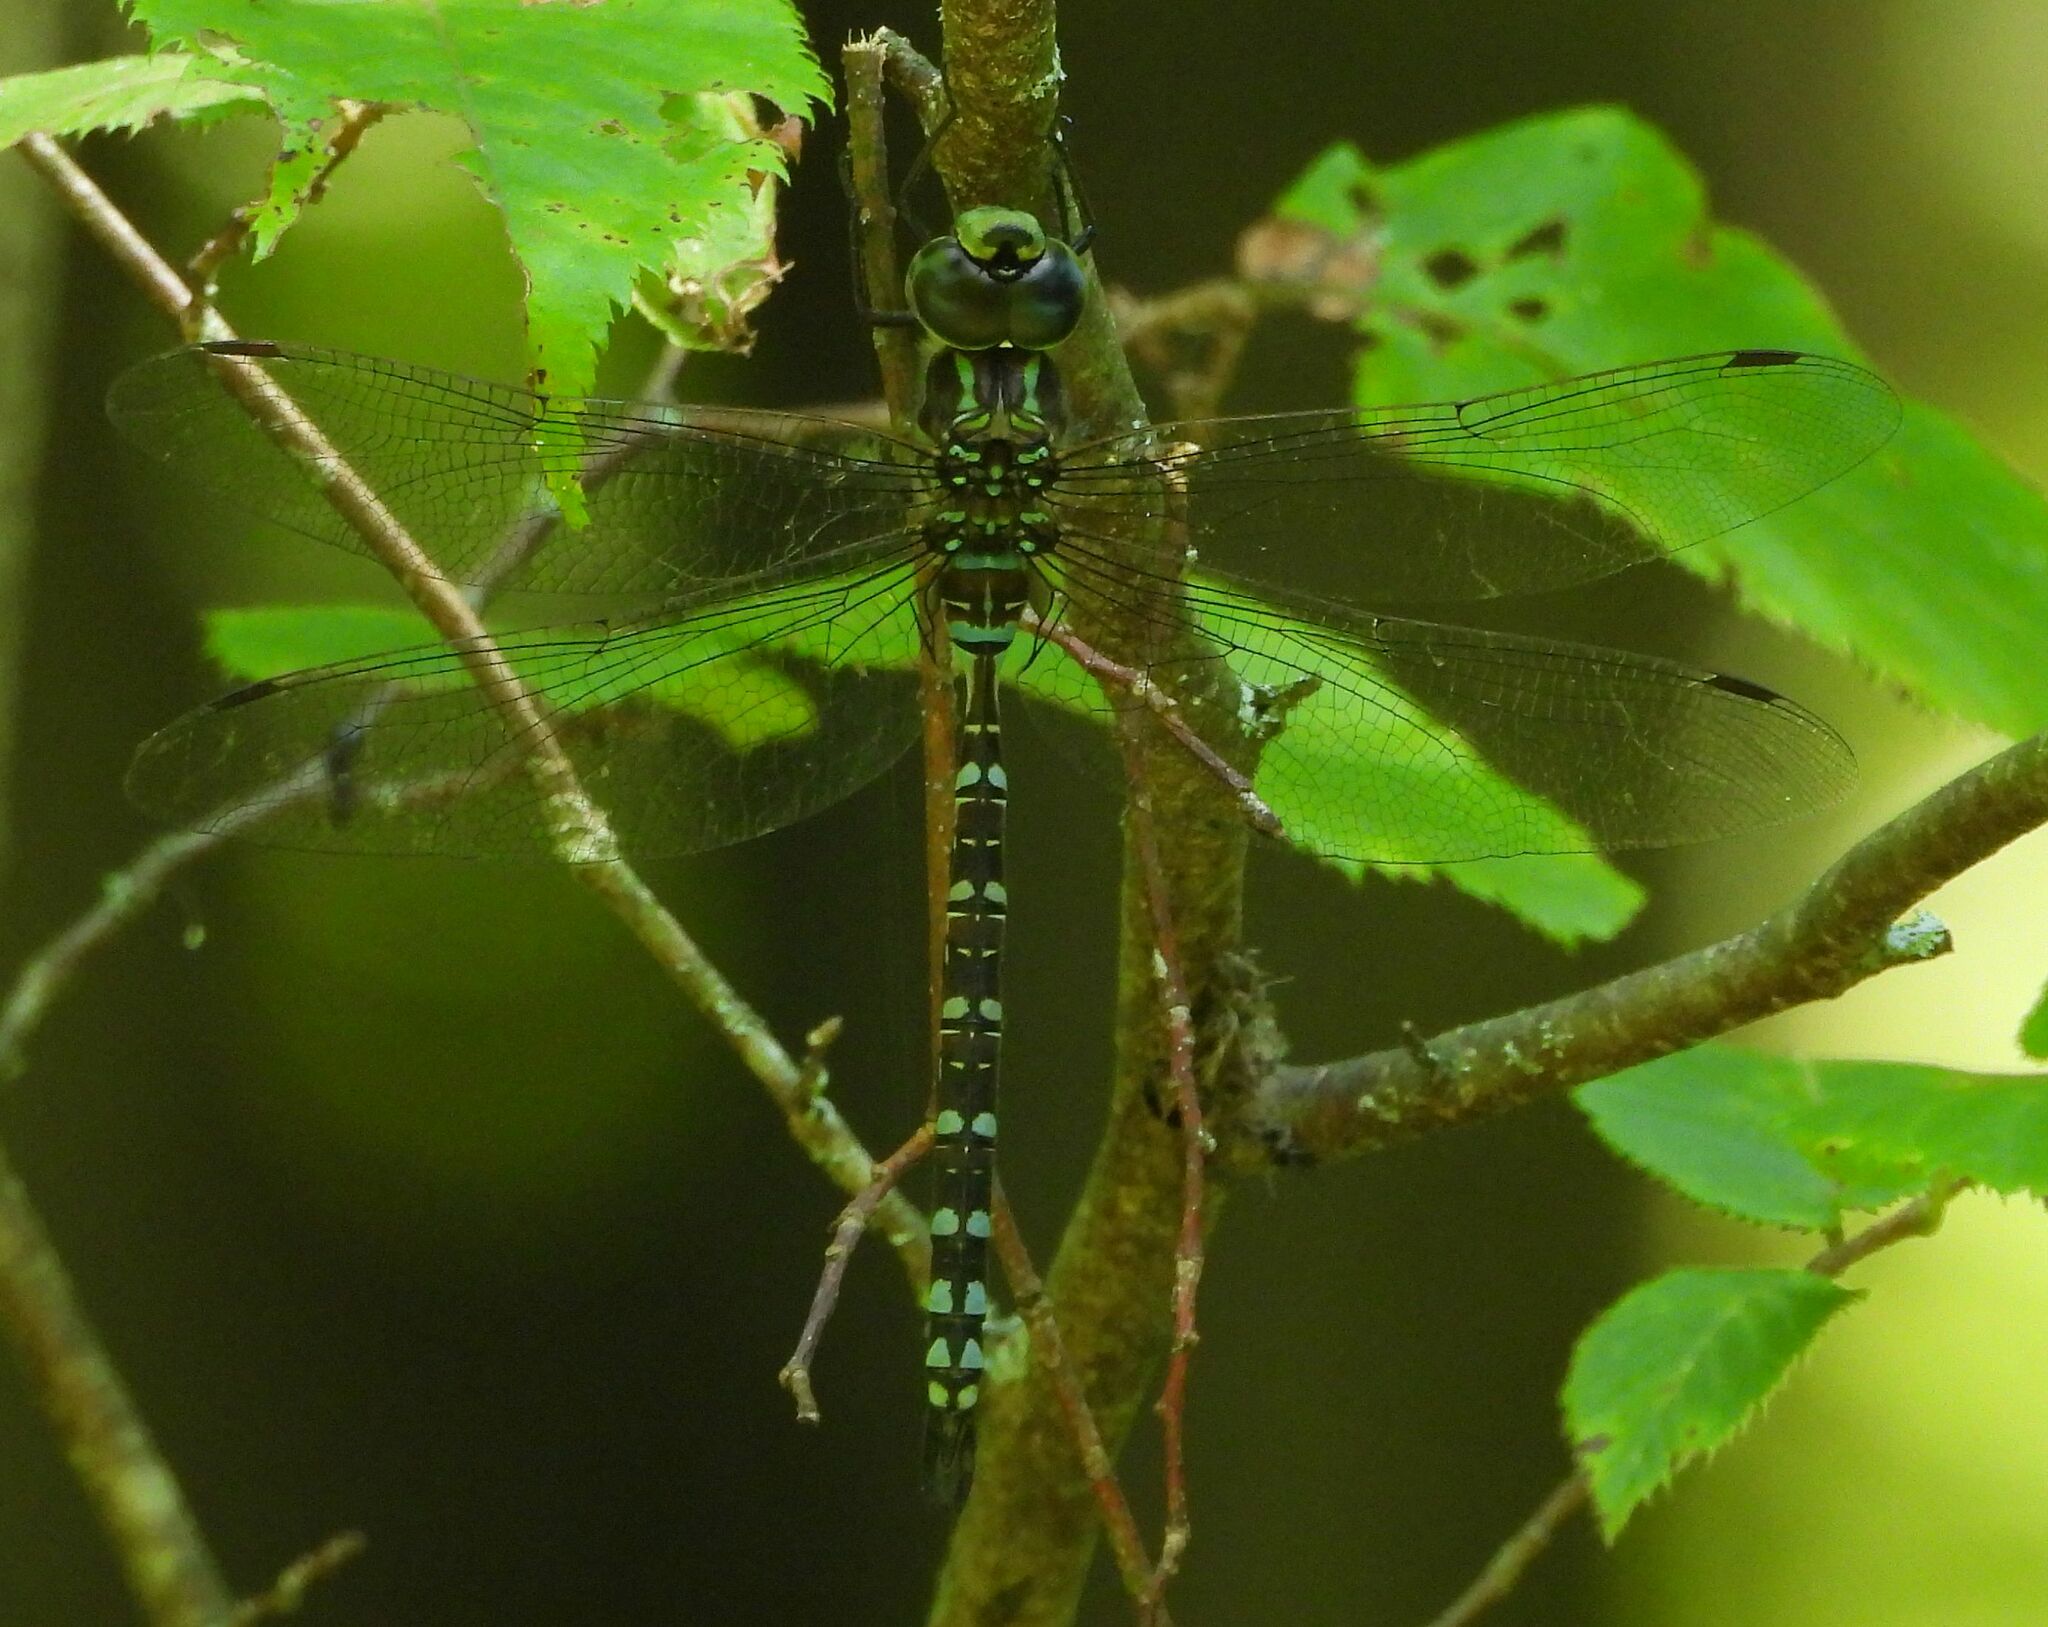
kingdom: Animalia
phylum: Arthropoda
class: Insecta
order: Odonata
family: Aeshnidae
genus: Aeshna
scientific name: Aeshna canadensis
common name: Canada darner
